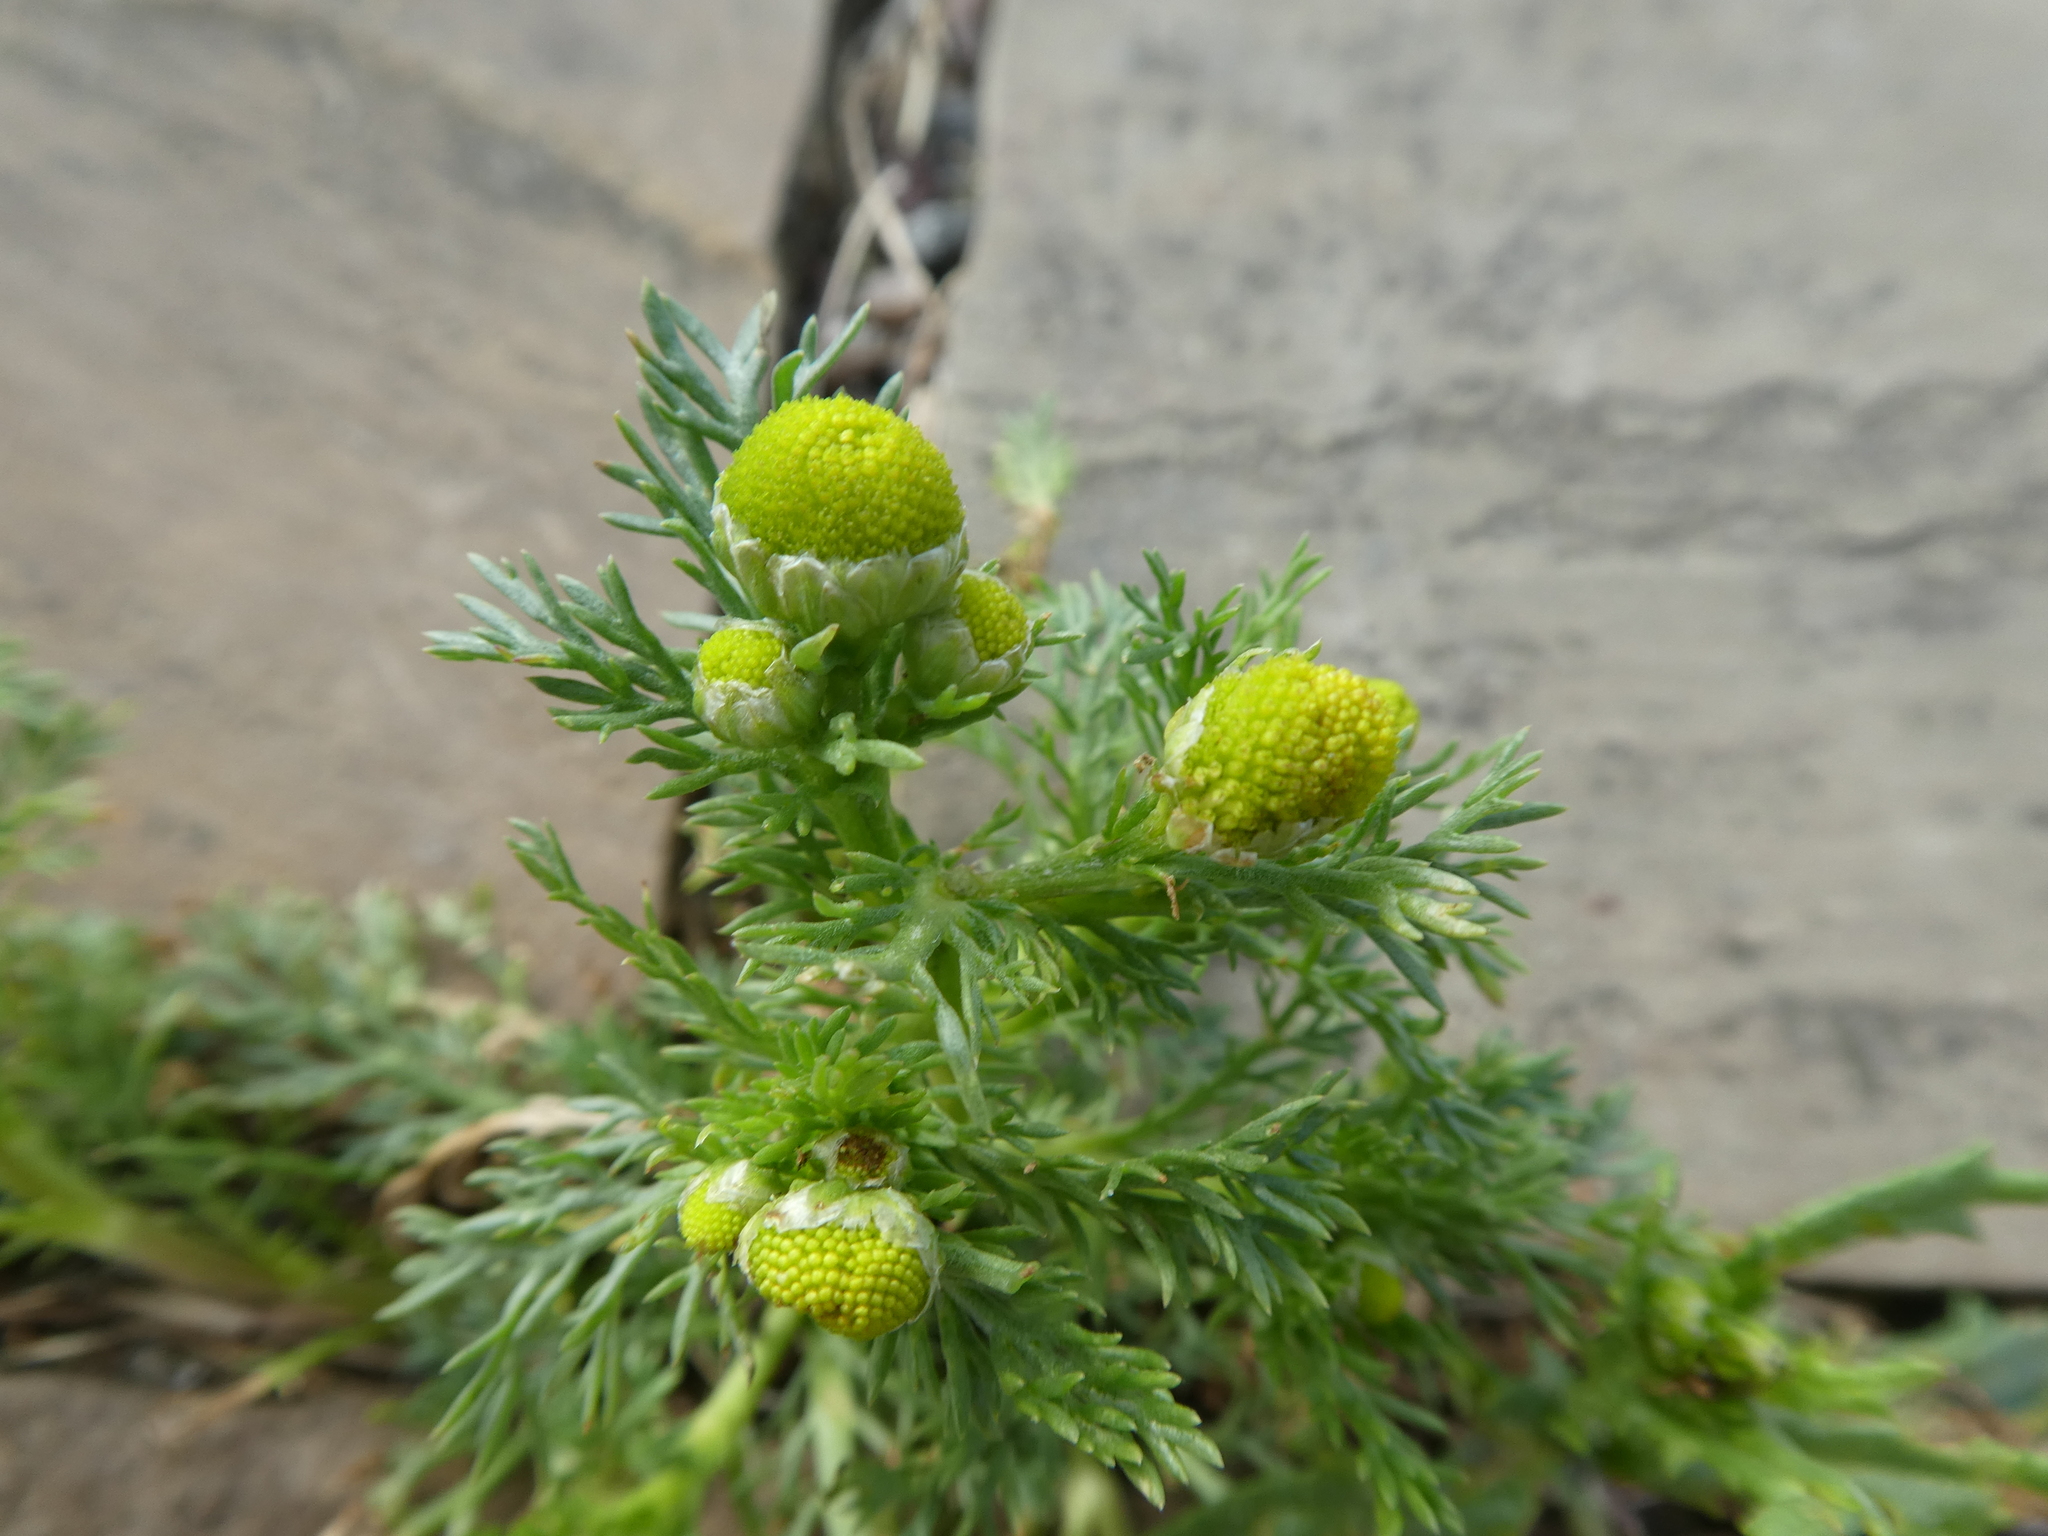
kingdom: Plantae
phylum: Tracheophyta
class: Magnoliopsida
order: Asterales
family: Asteraceae
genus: Matricaria
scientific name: Matricaria discoidea
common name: Disc mayweed
